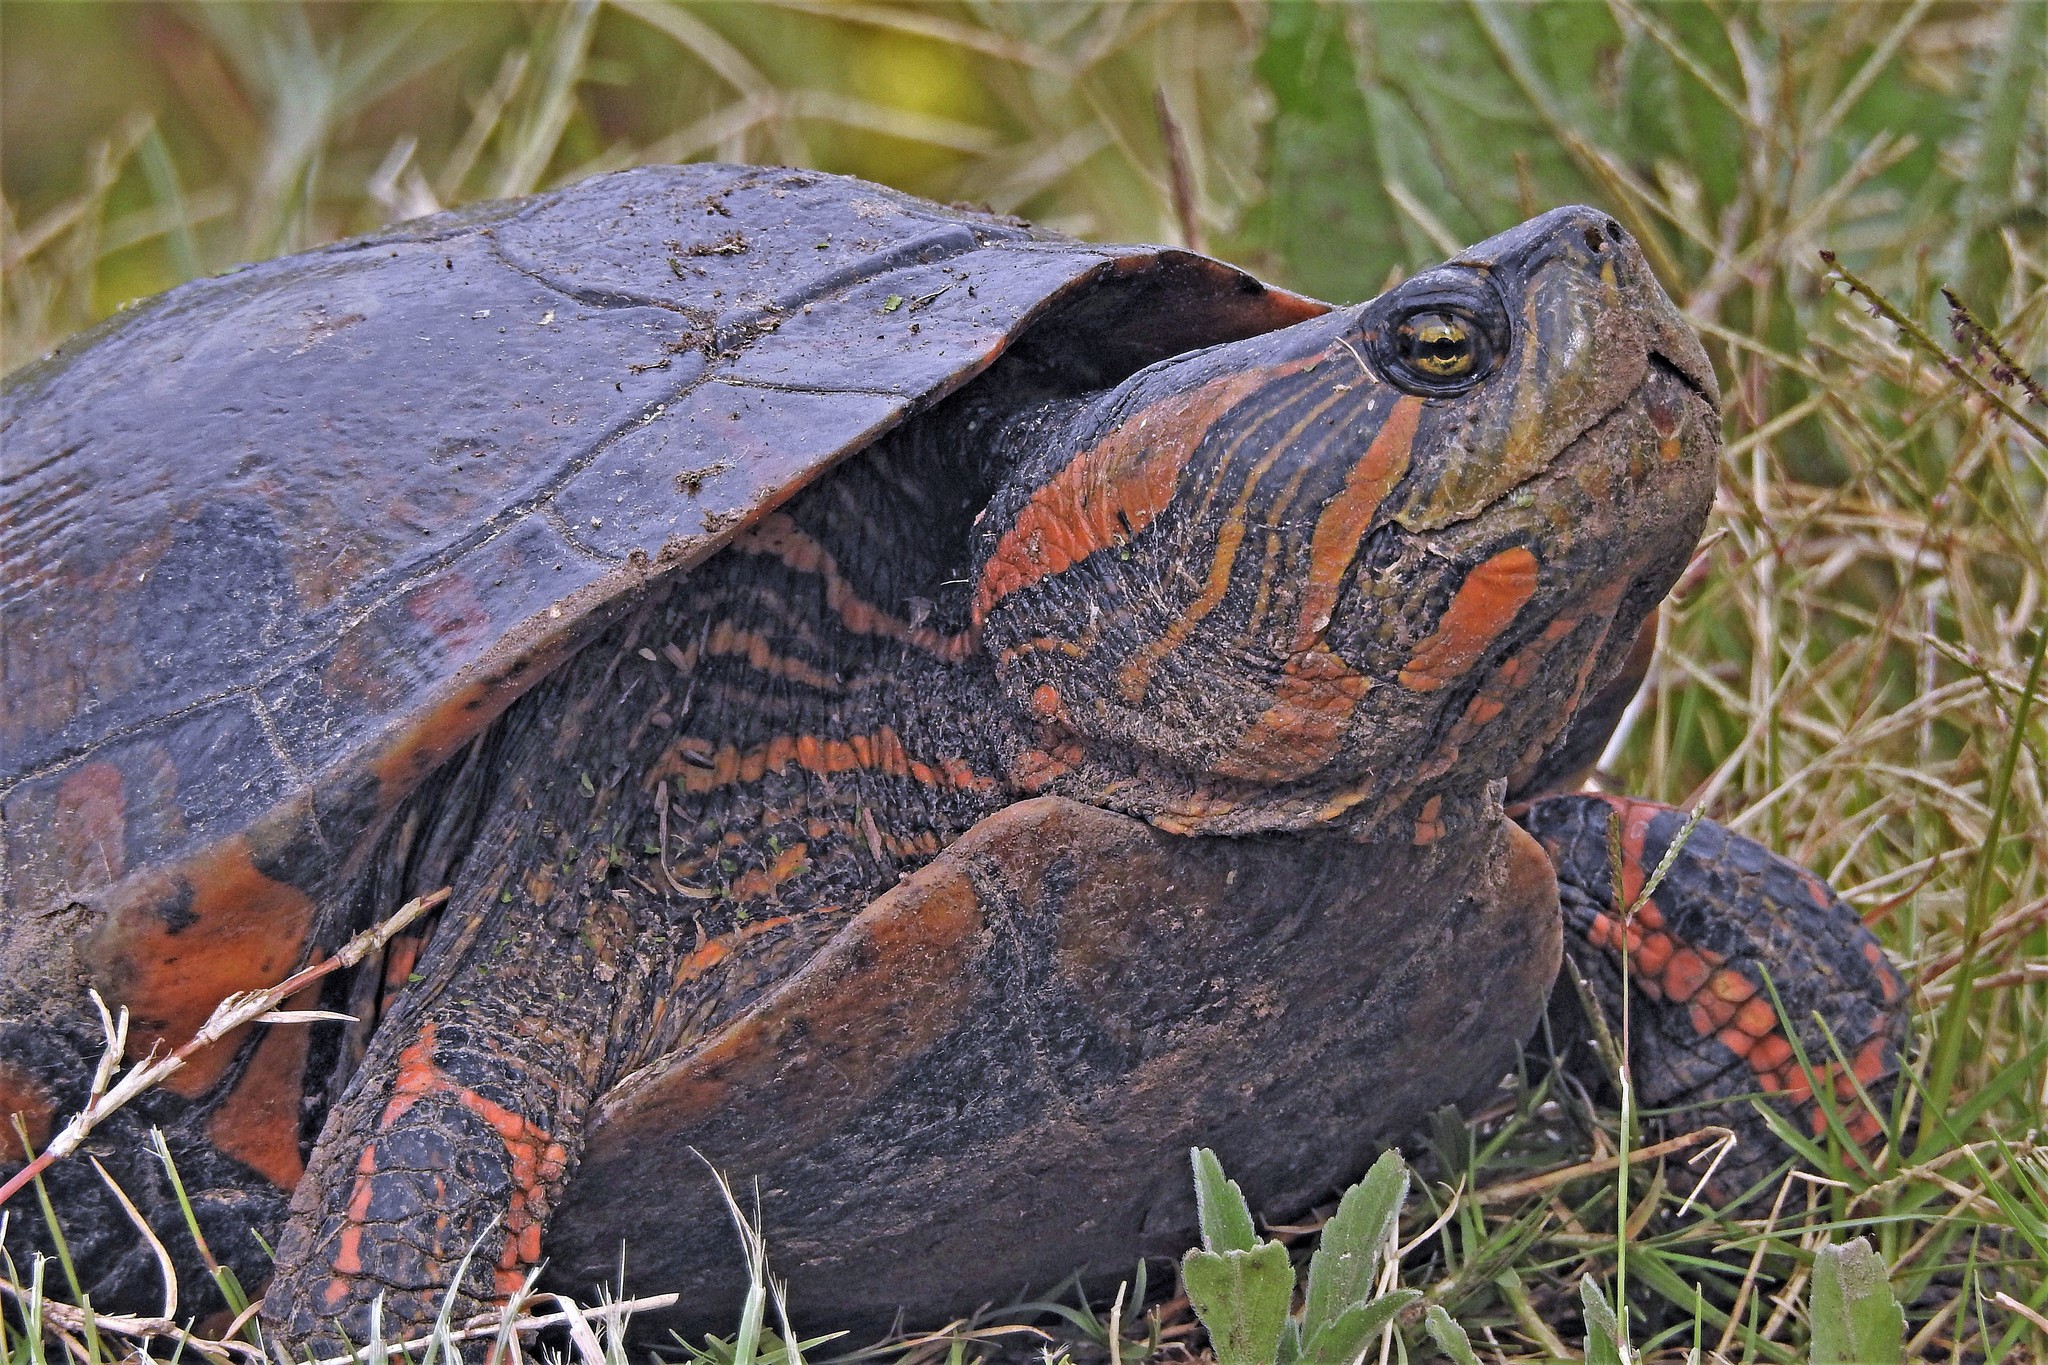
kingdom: Animalia
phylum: Chordata
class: Testudines
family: Emydidae
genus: Trachemys
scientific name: Trachemys dorbigni
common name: Black-bellied slider
